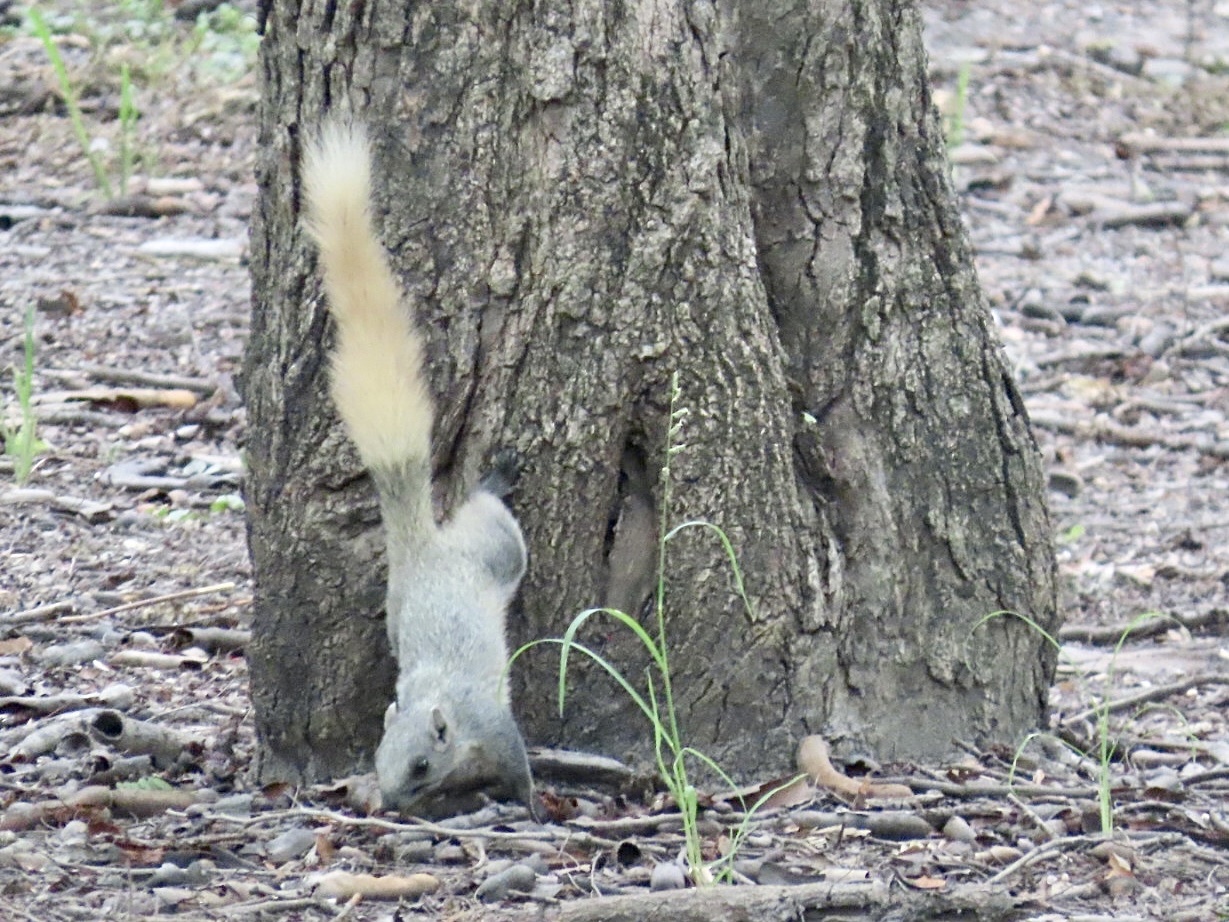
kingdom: Animalia
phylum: Chordata
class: Mammalia
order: Rodentia
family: Sciuridae
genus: Callosciurus
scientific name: Callosciurus finlaysonii
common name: Finlayson's squirrel
